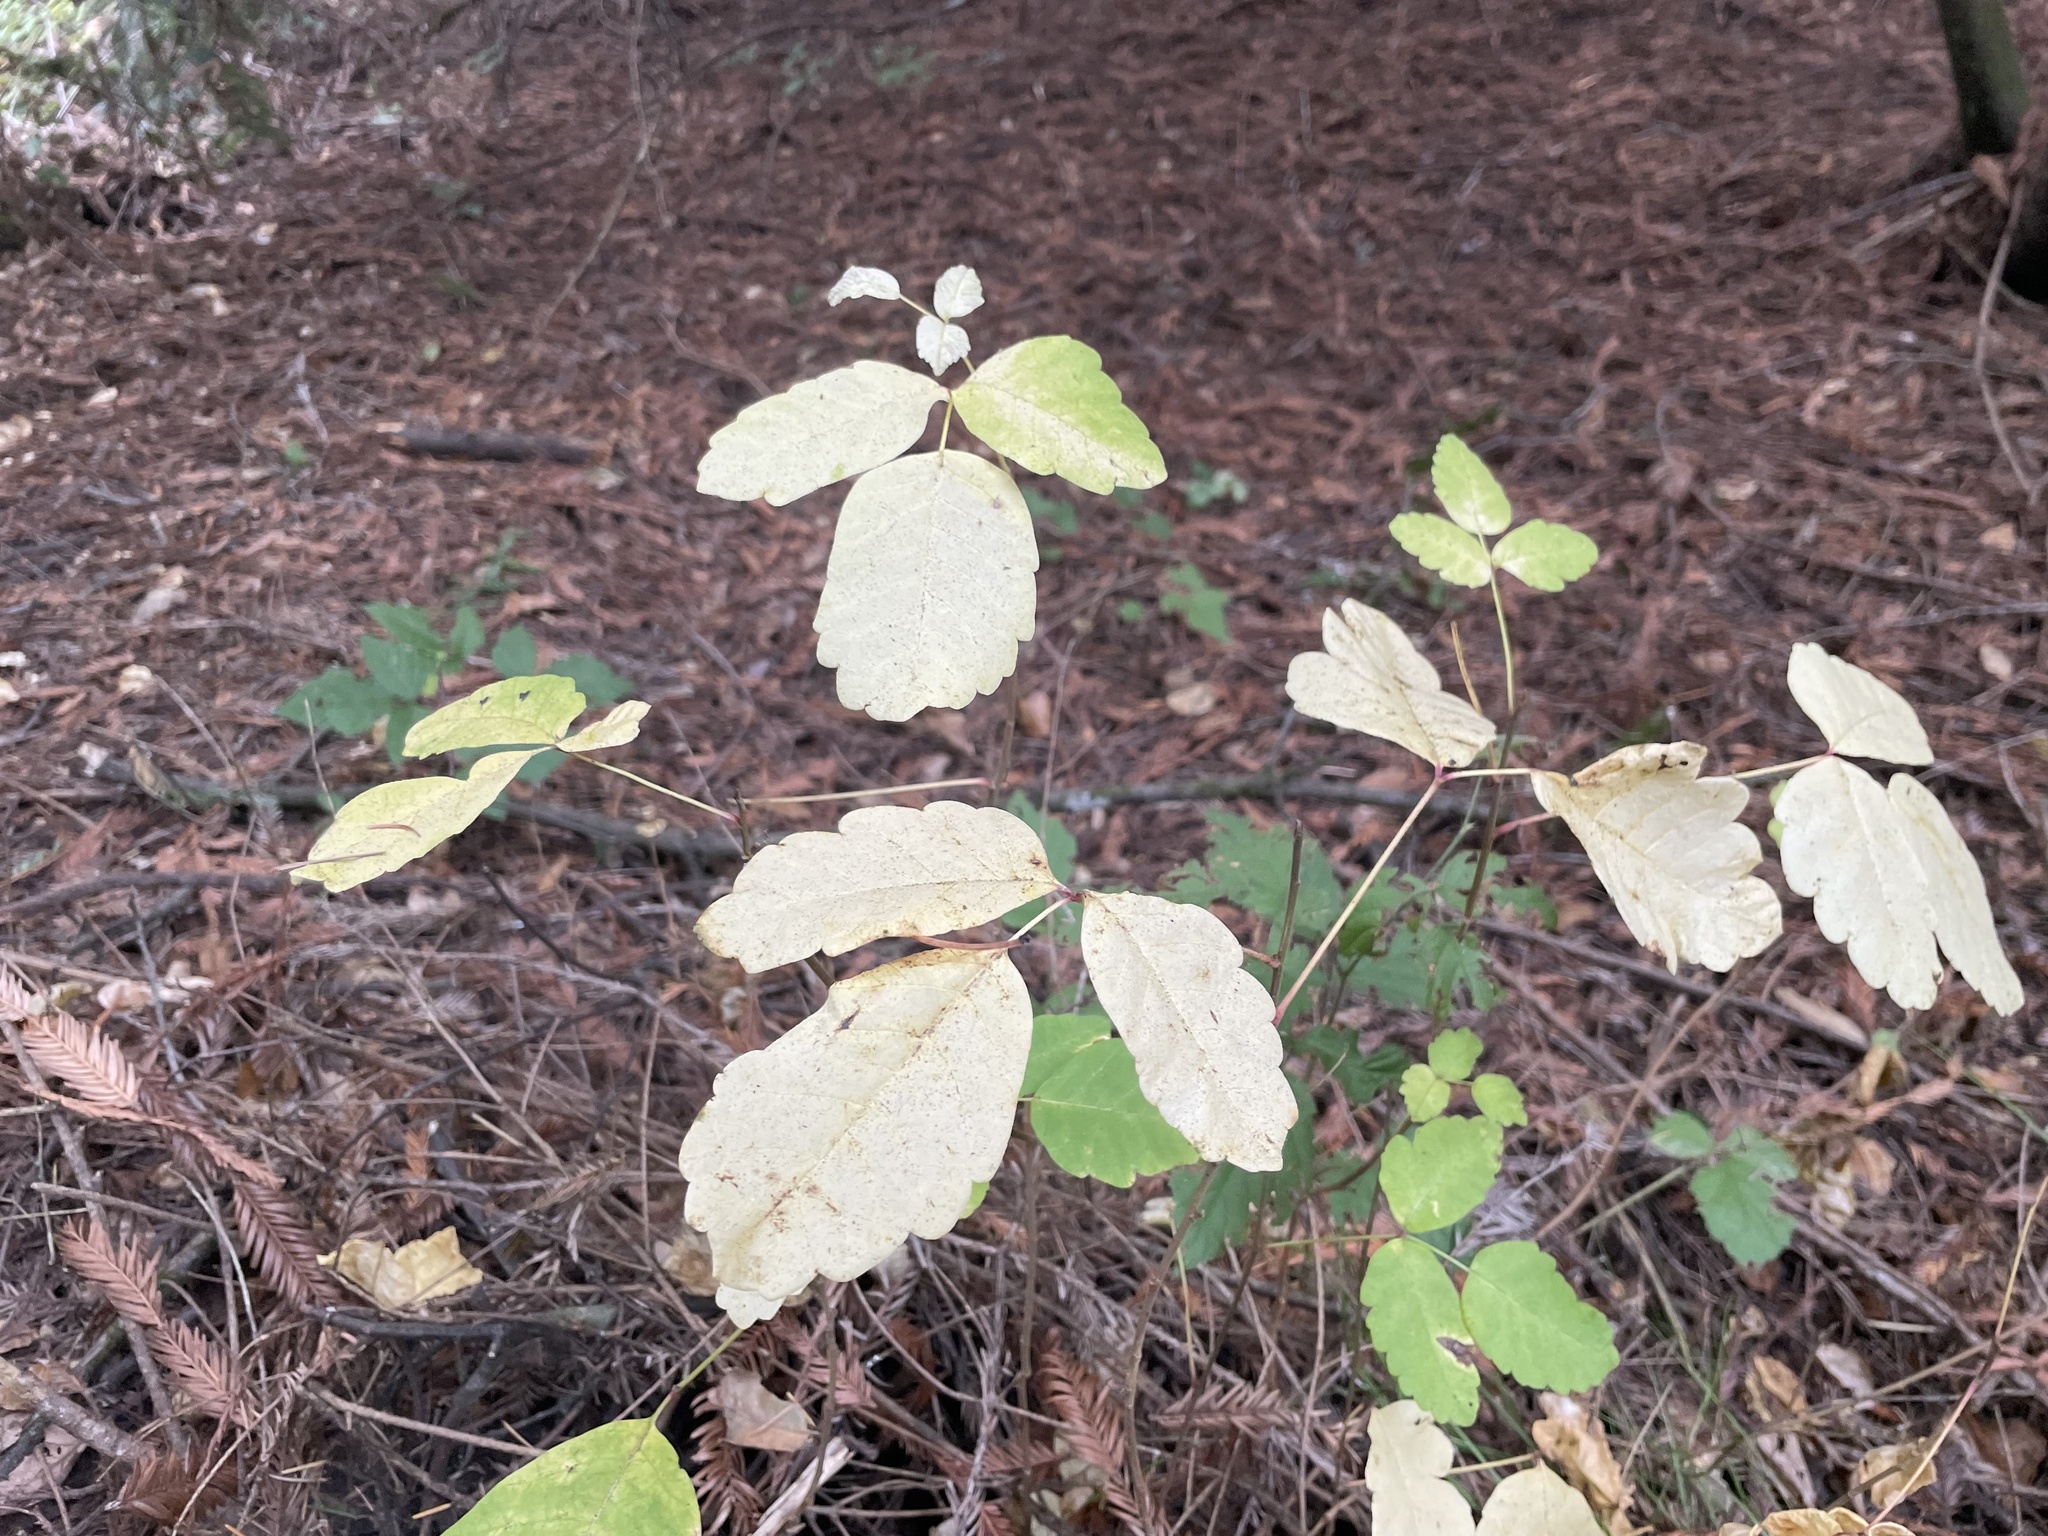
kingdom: Plantae
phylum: Tracheophyta
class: Magnoliopsida
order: Sapindales
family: Anacardiaceae
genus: Toxicodendron
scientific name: Toxicodendron diversilobum
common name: Pacific poison-oak
